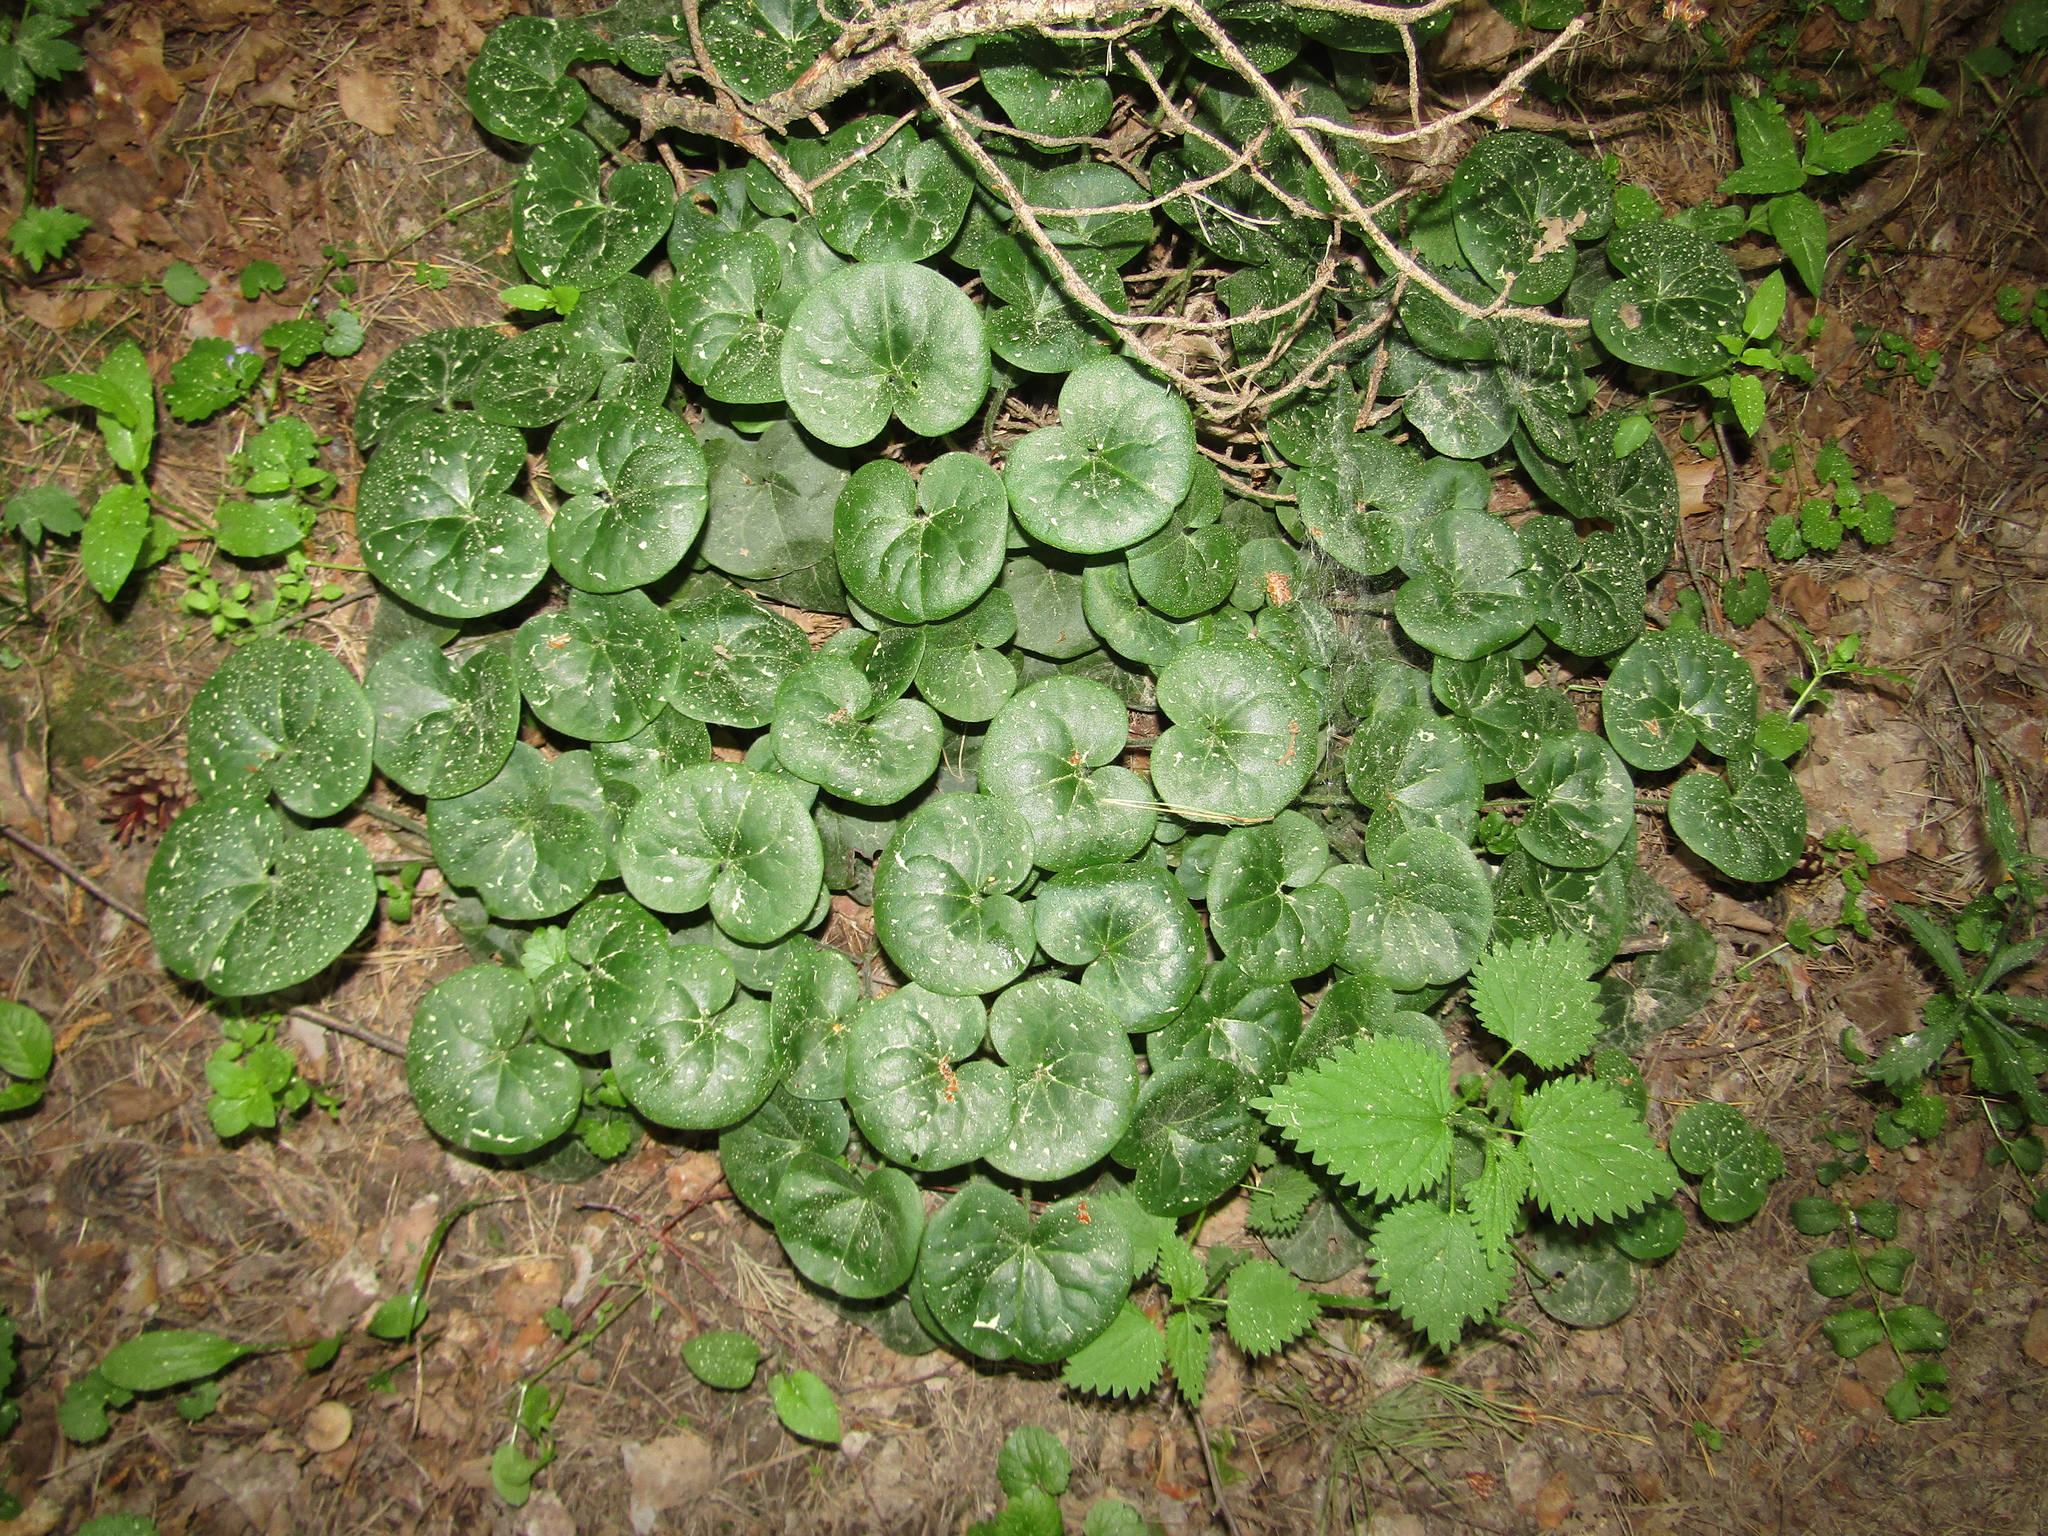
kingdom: Plantae
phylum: Tracheophyta
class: Magnoliopsida
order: Piperales
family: Aristolochiaceae
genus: Asarum
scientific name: Asarum europaeum
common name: Asarabacca
